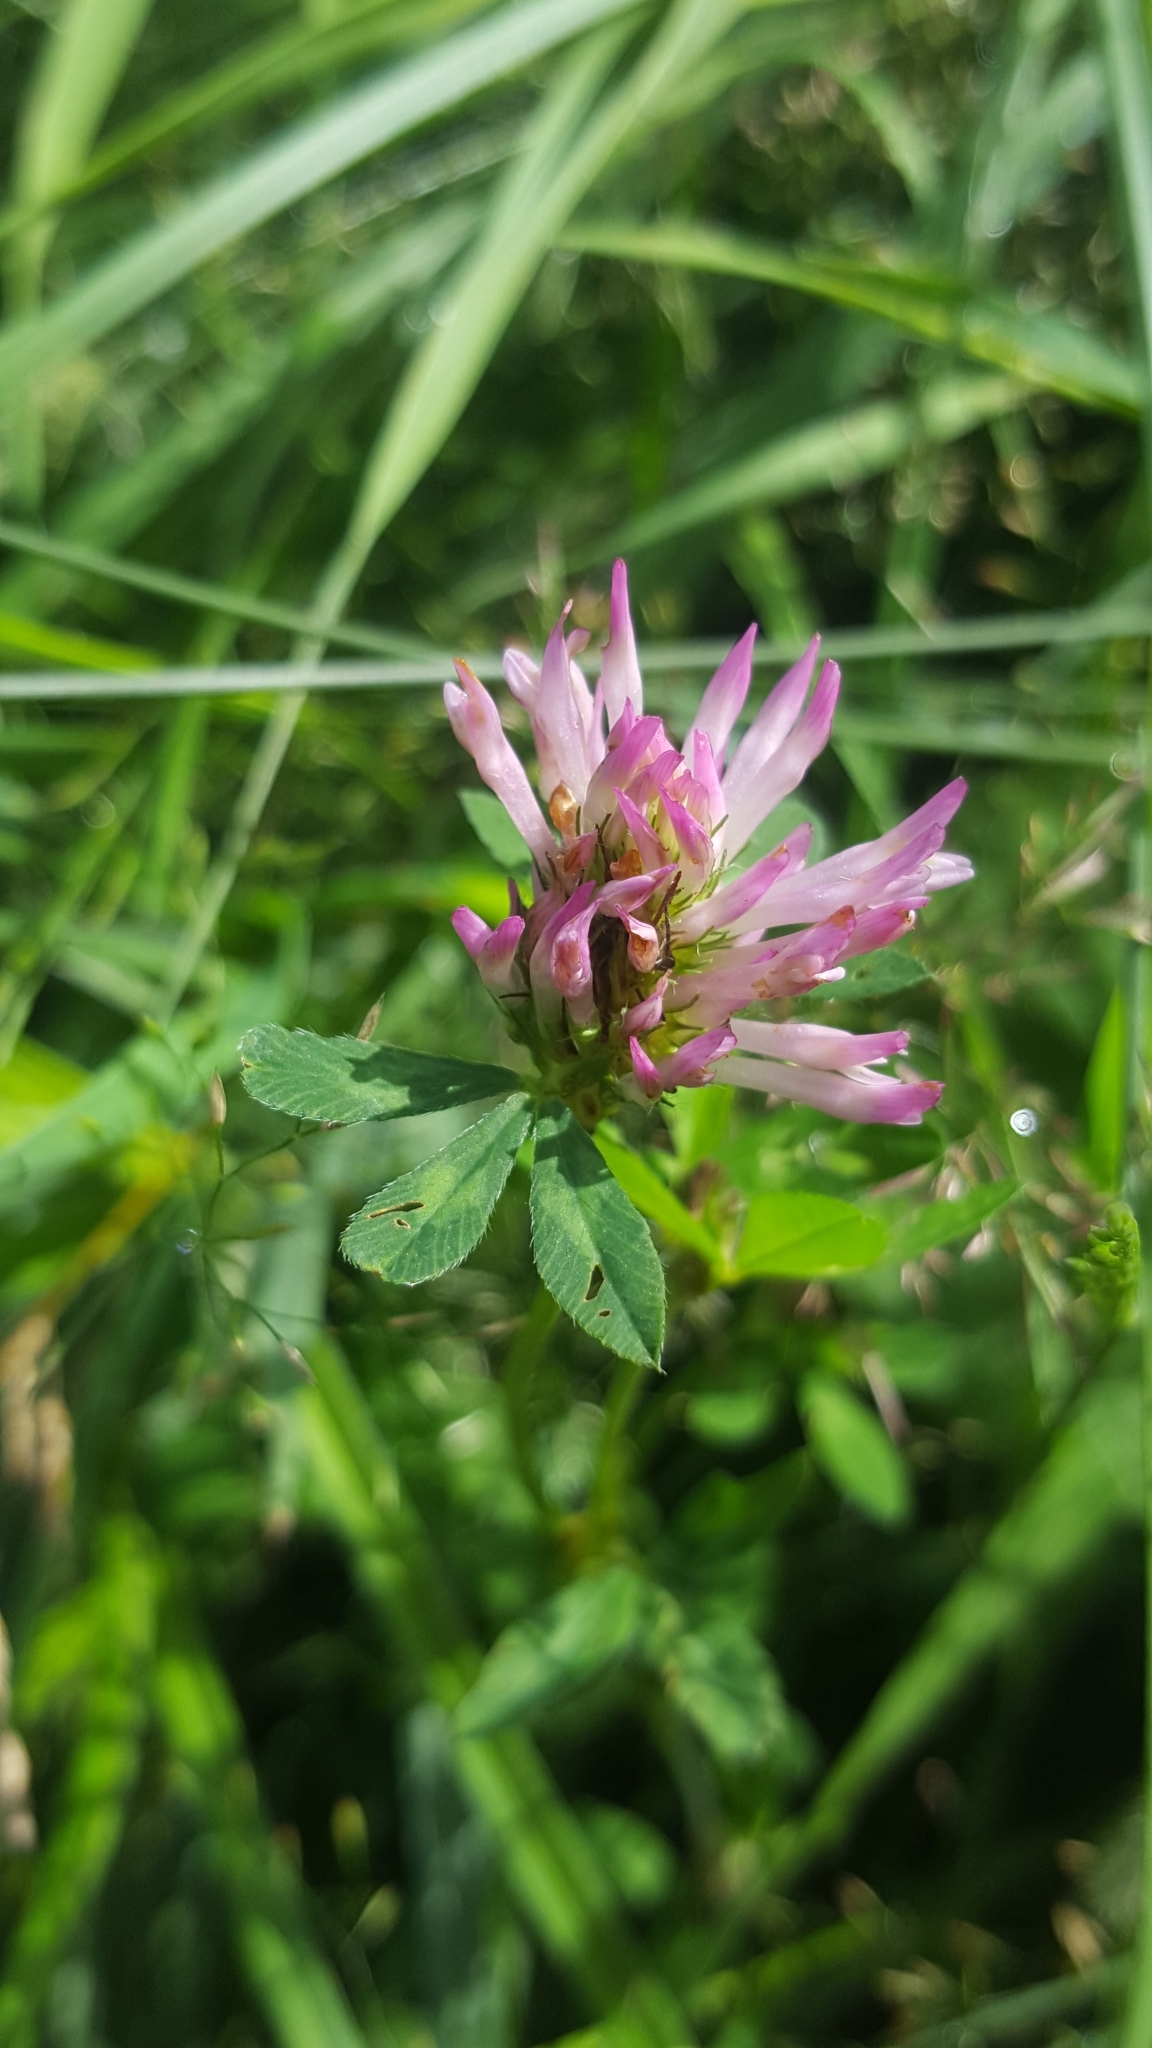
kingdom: Plantae
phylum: Tracheophyta
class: Magnoliopsida
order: Fabales
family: Fabaceae
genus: Trifolium
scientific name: Trifolium pratense
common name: Red clover
